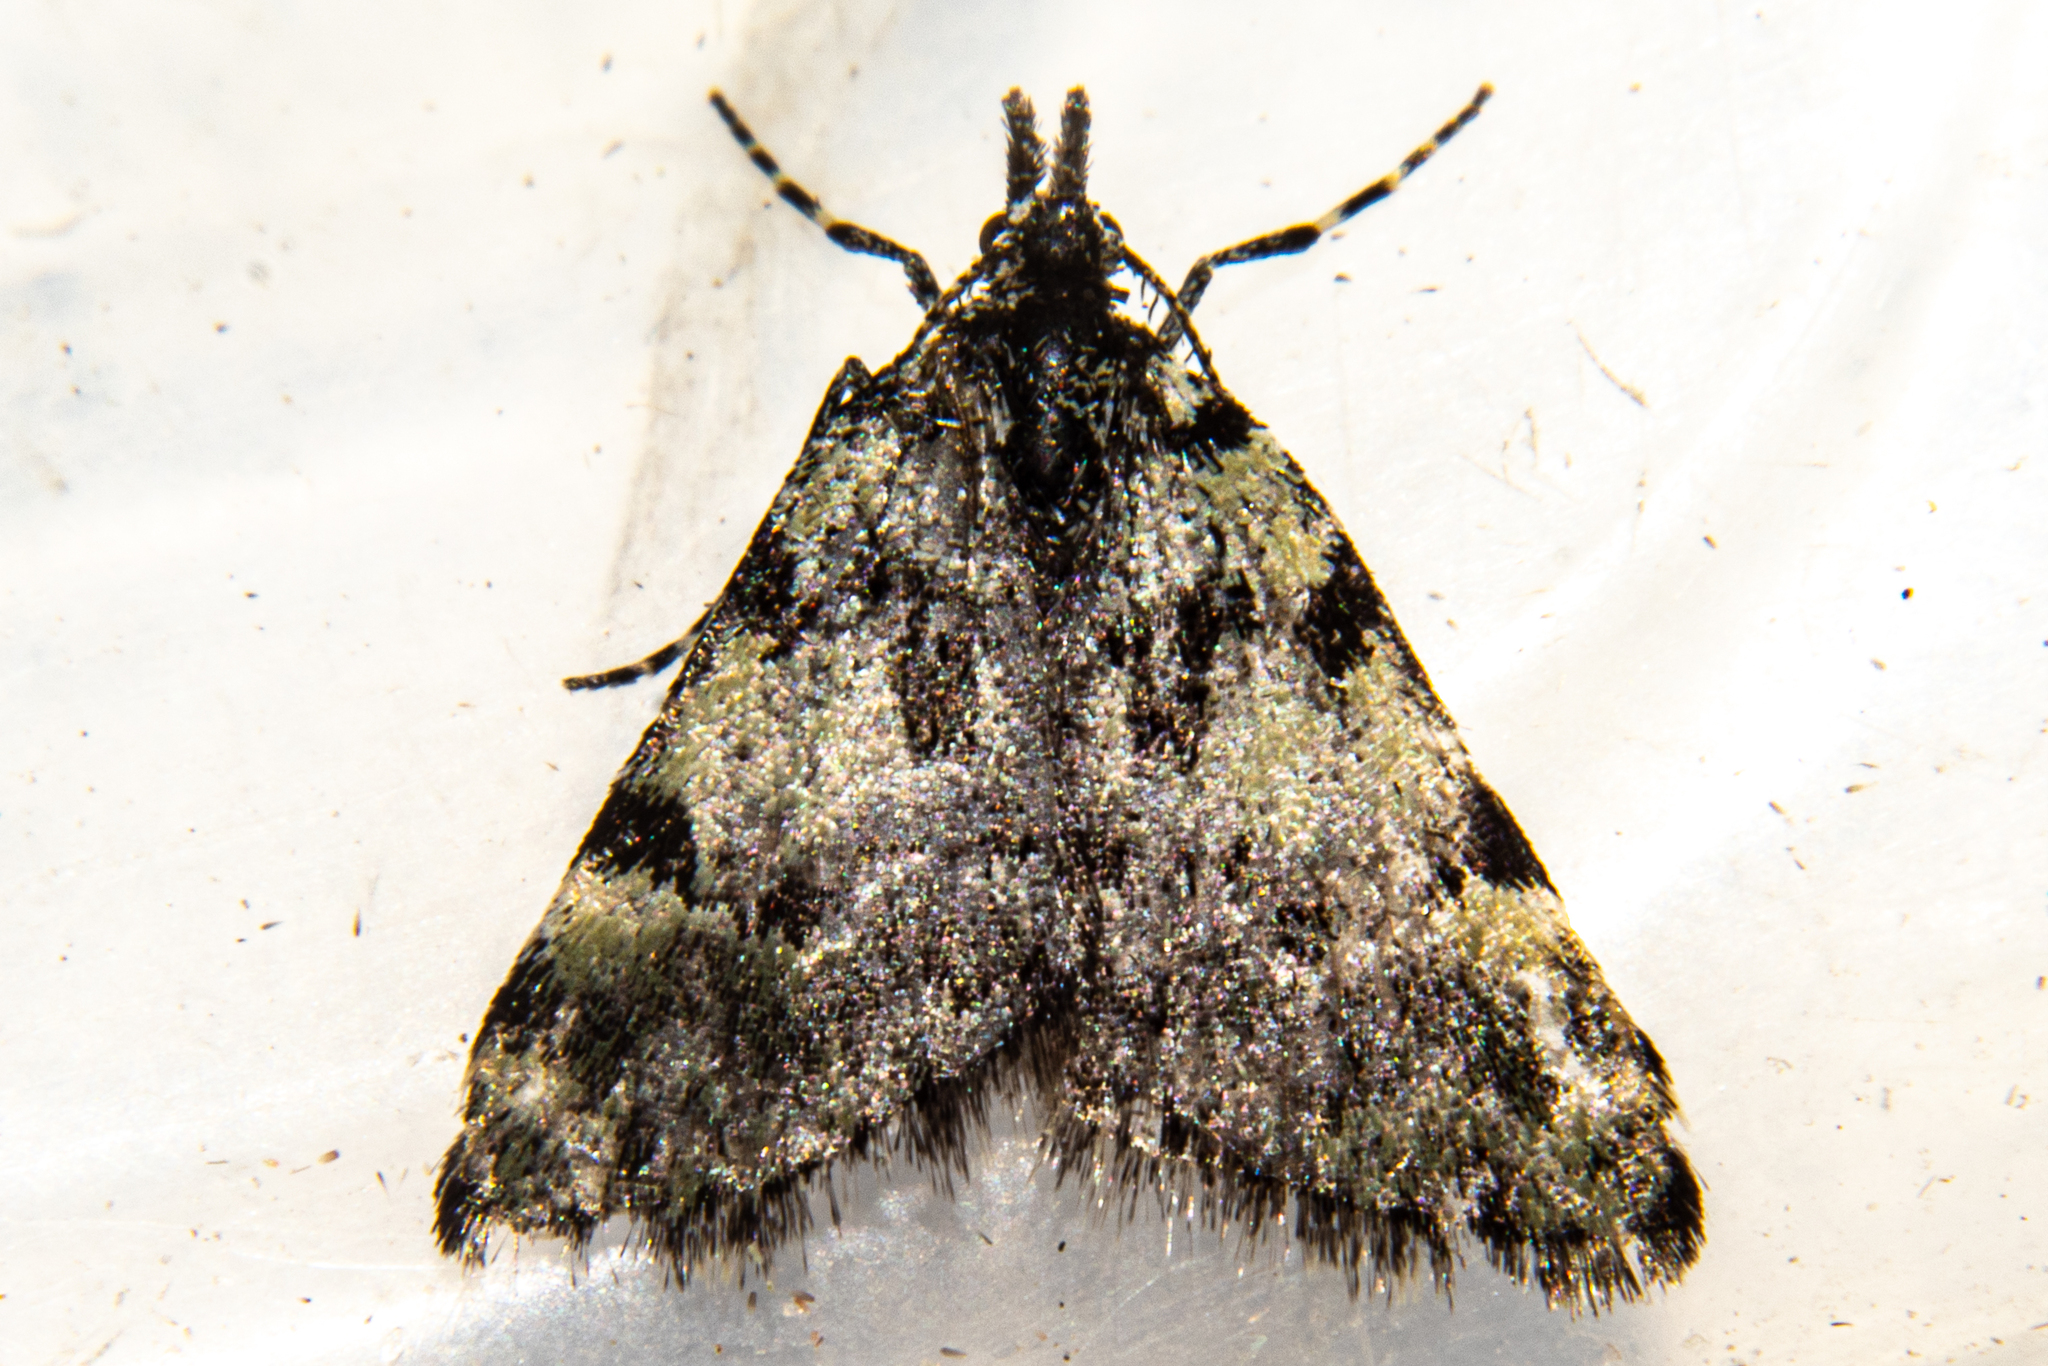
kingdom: Animalia
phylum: Arthropoda
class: Insecta
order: Lepidoptera
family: Geometridae
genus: Dichromodes
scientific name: Dichromodes gypsotis
